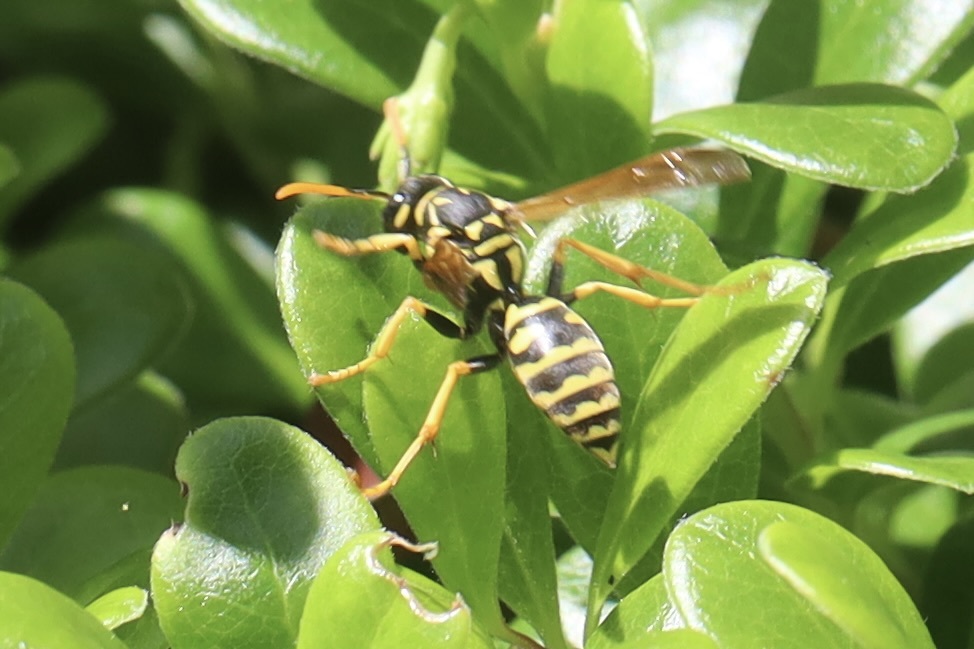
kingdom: Animalia
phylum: Arthropoda
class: Insecta
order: Hymenoptera
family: Eumenidae
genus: Polistes
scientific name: Polistes dominula
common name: Paper wasp
